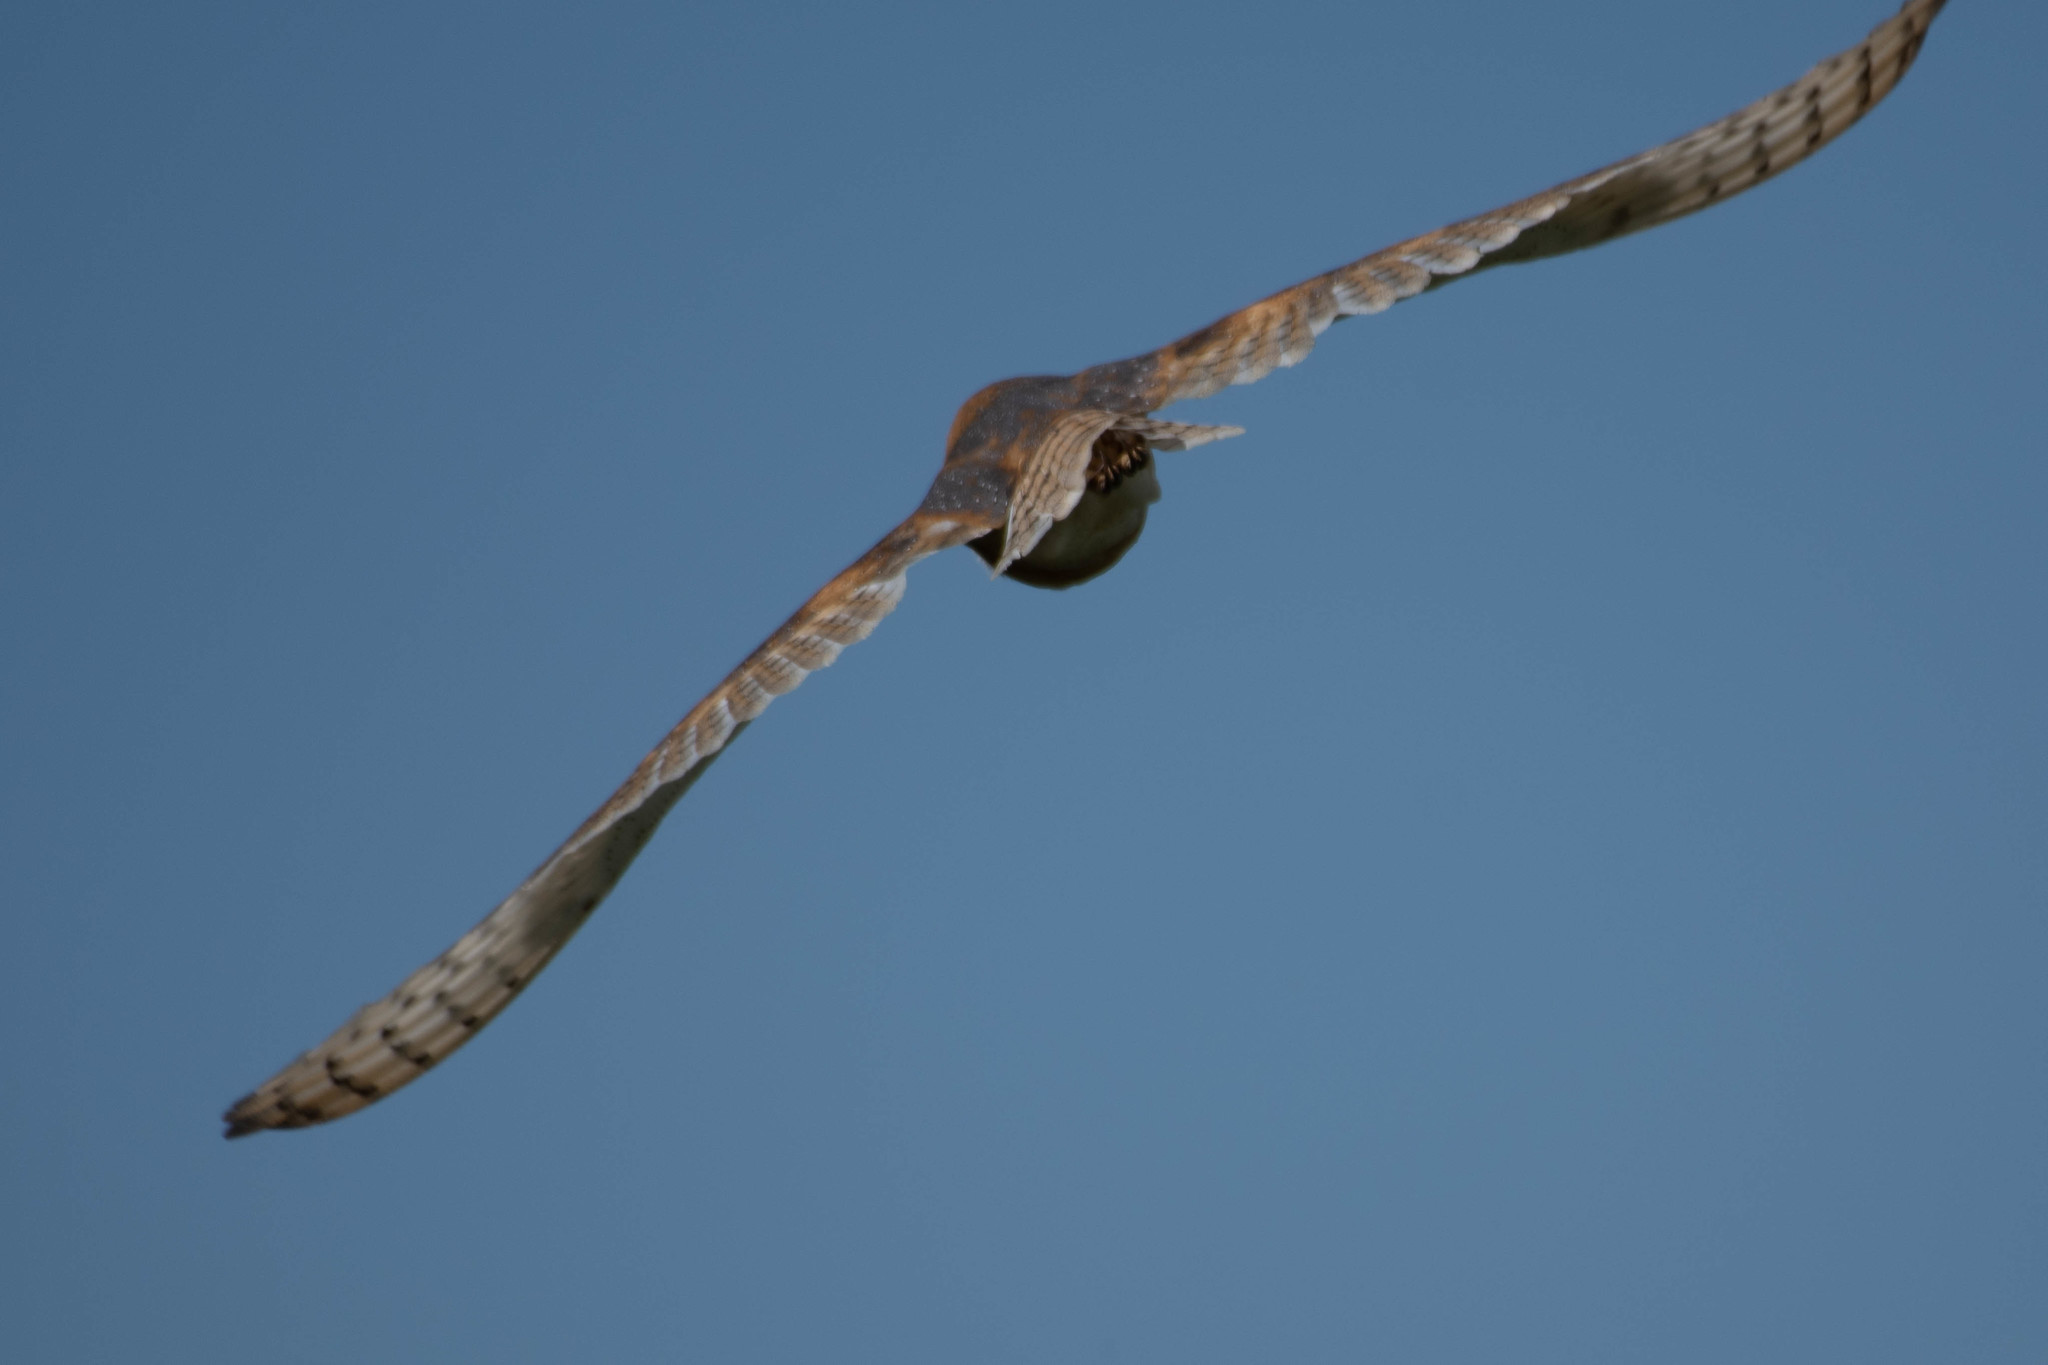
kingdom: Animalia
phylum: Chordata
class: Aves
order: Strigiformes
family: Tytonidae
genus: Tyto
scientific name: Tyto alba
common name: Barn owl
